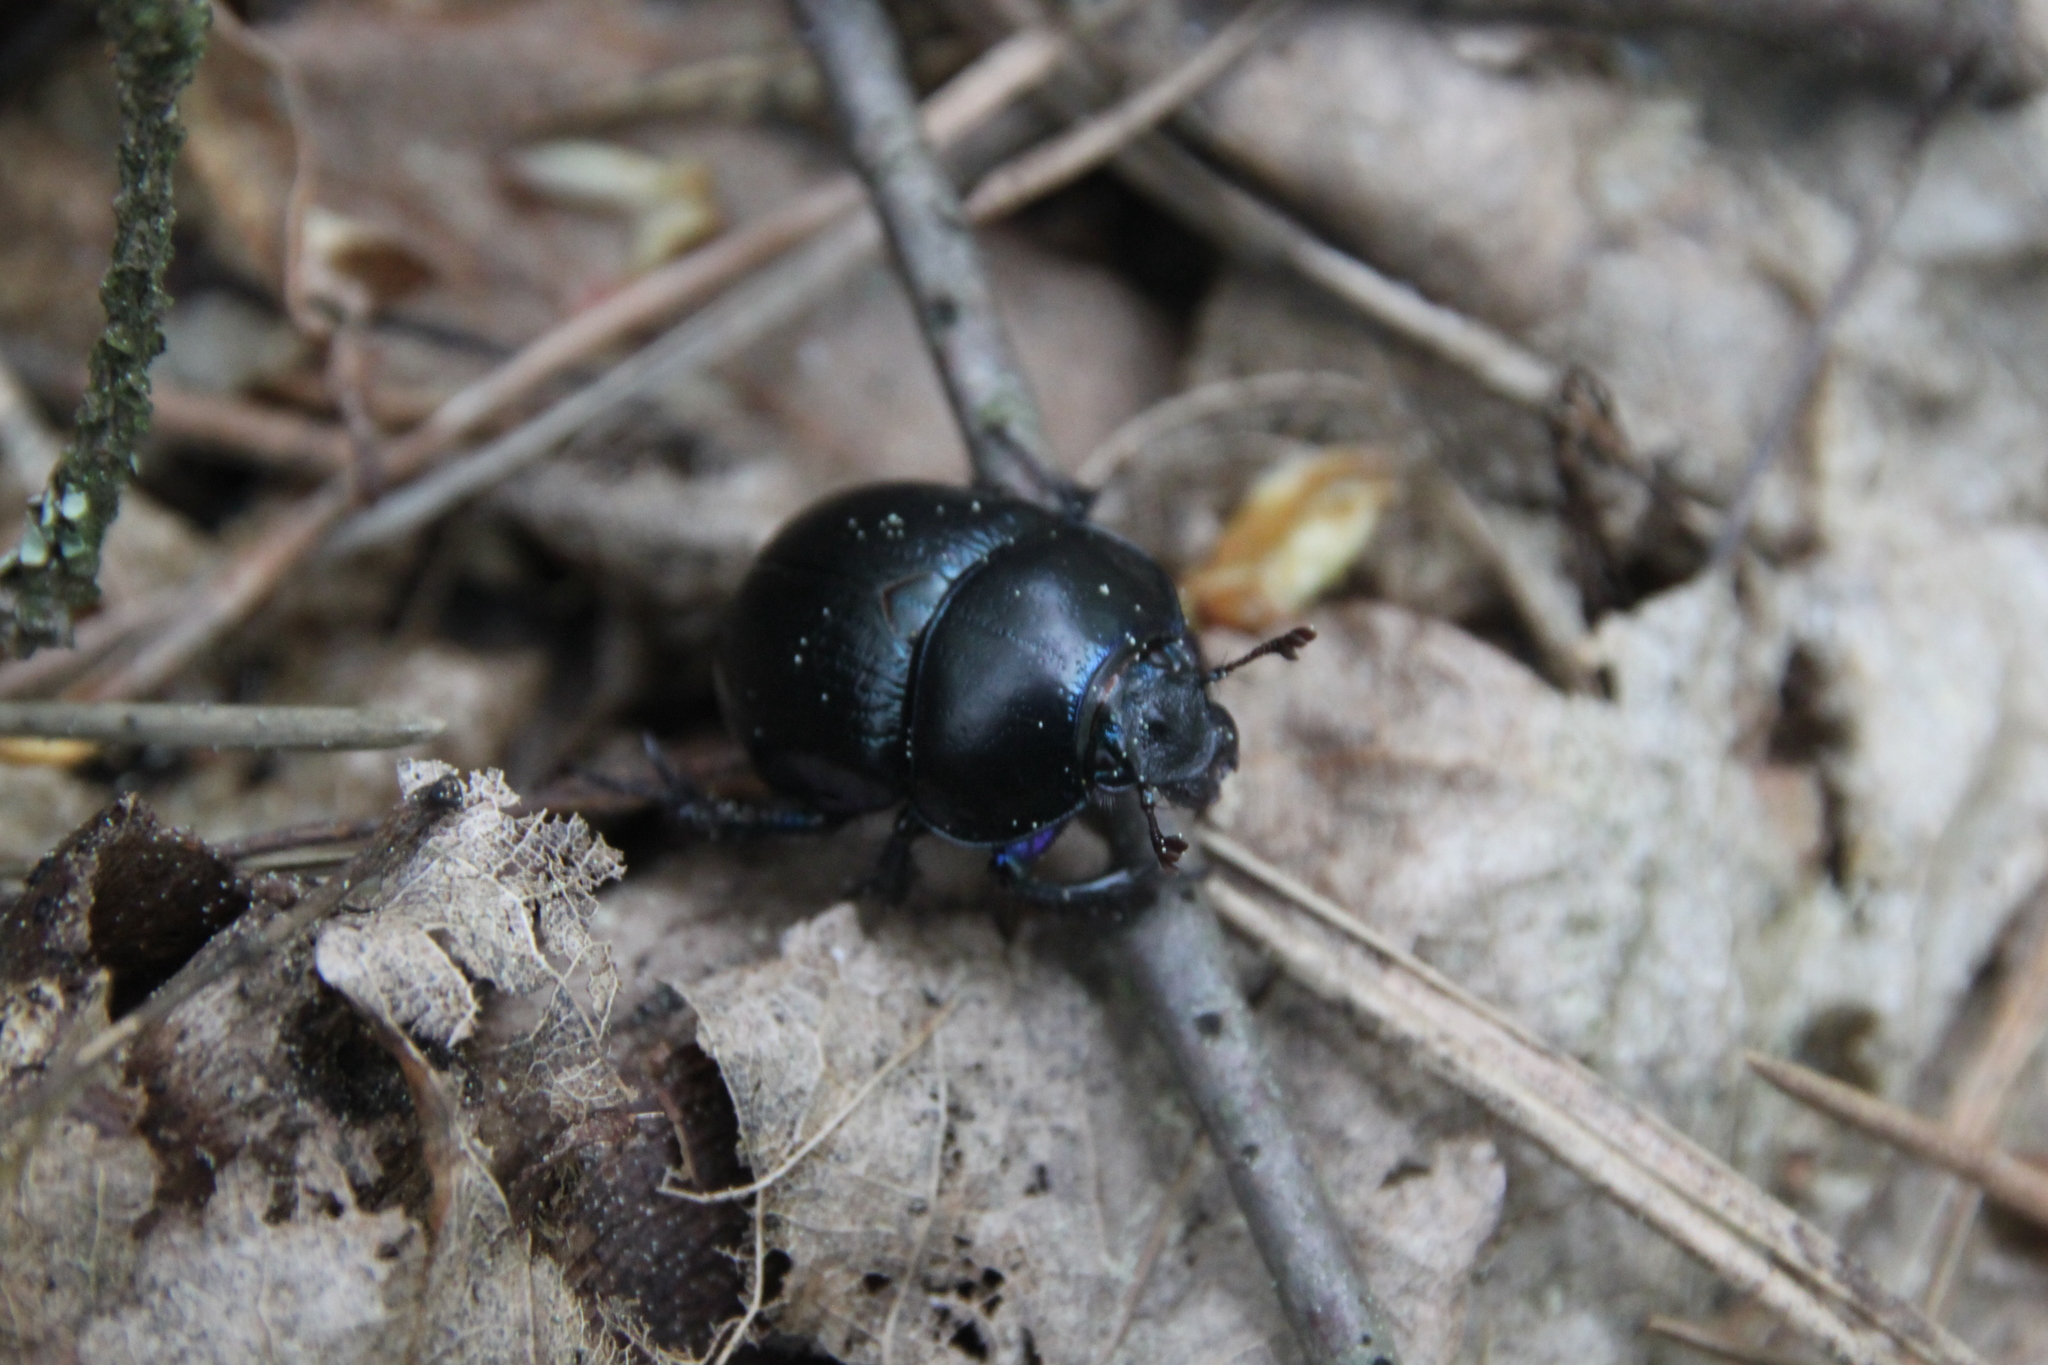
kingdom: Animalia
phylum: Arthropoda
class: Insecta
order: Coleoptera
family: Geotrupidae
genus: Anoplotrupes
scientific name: Anoplotrupes stercorosus
